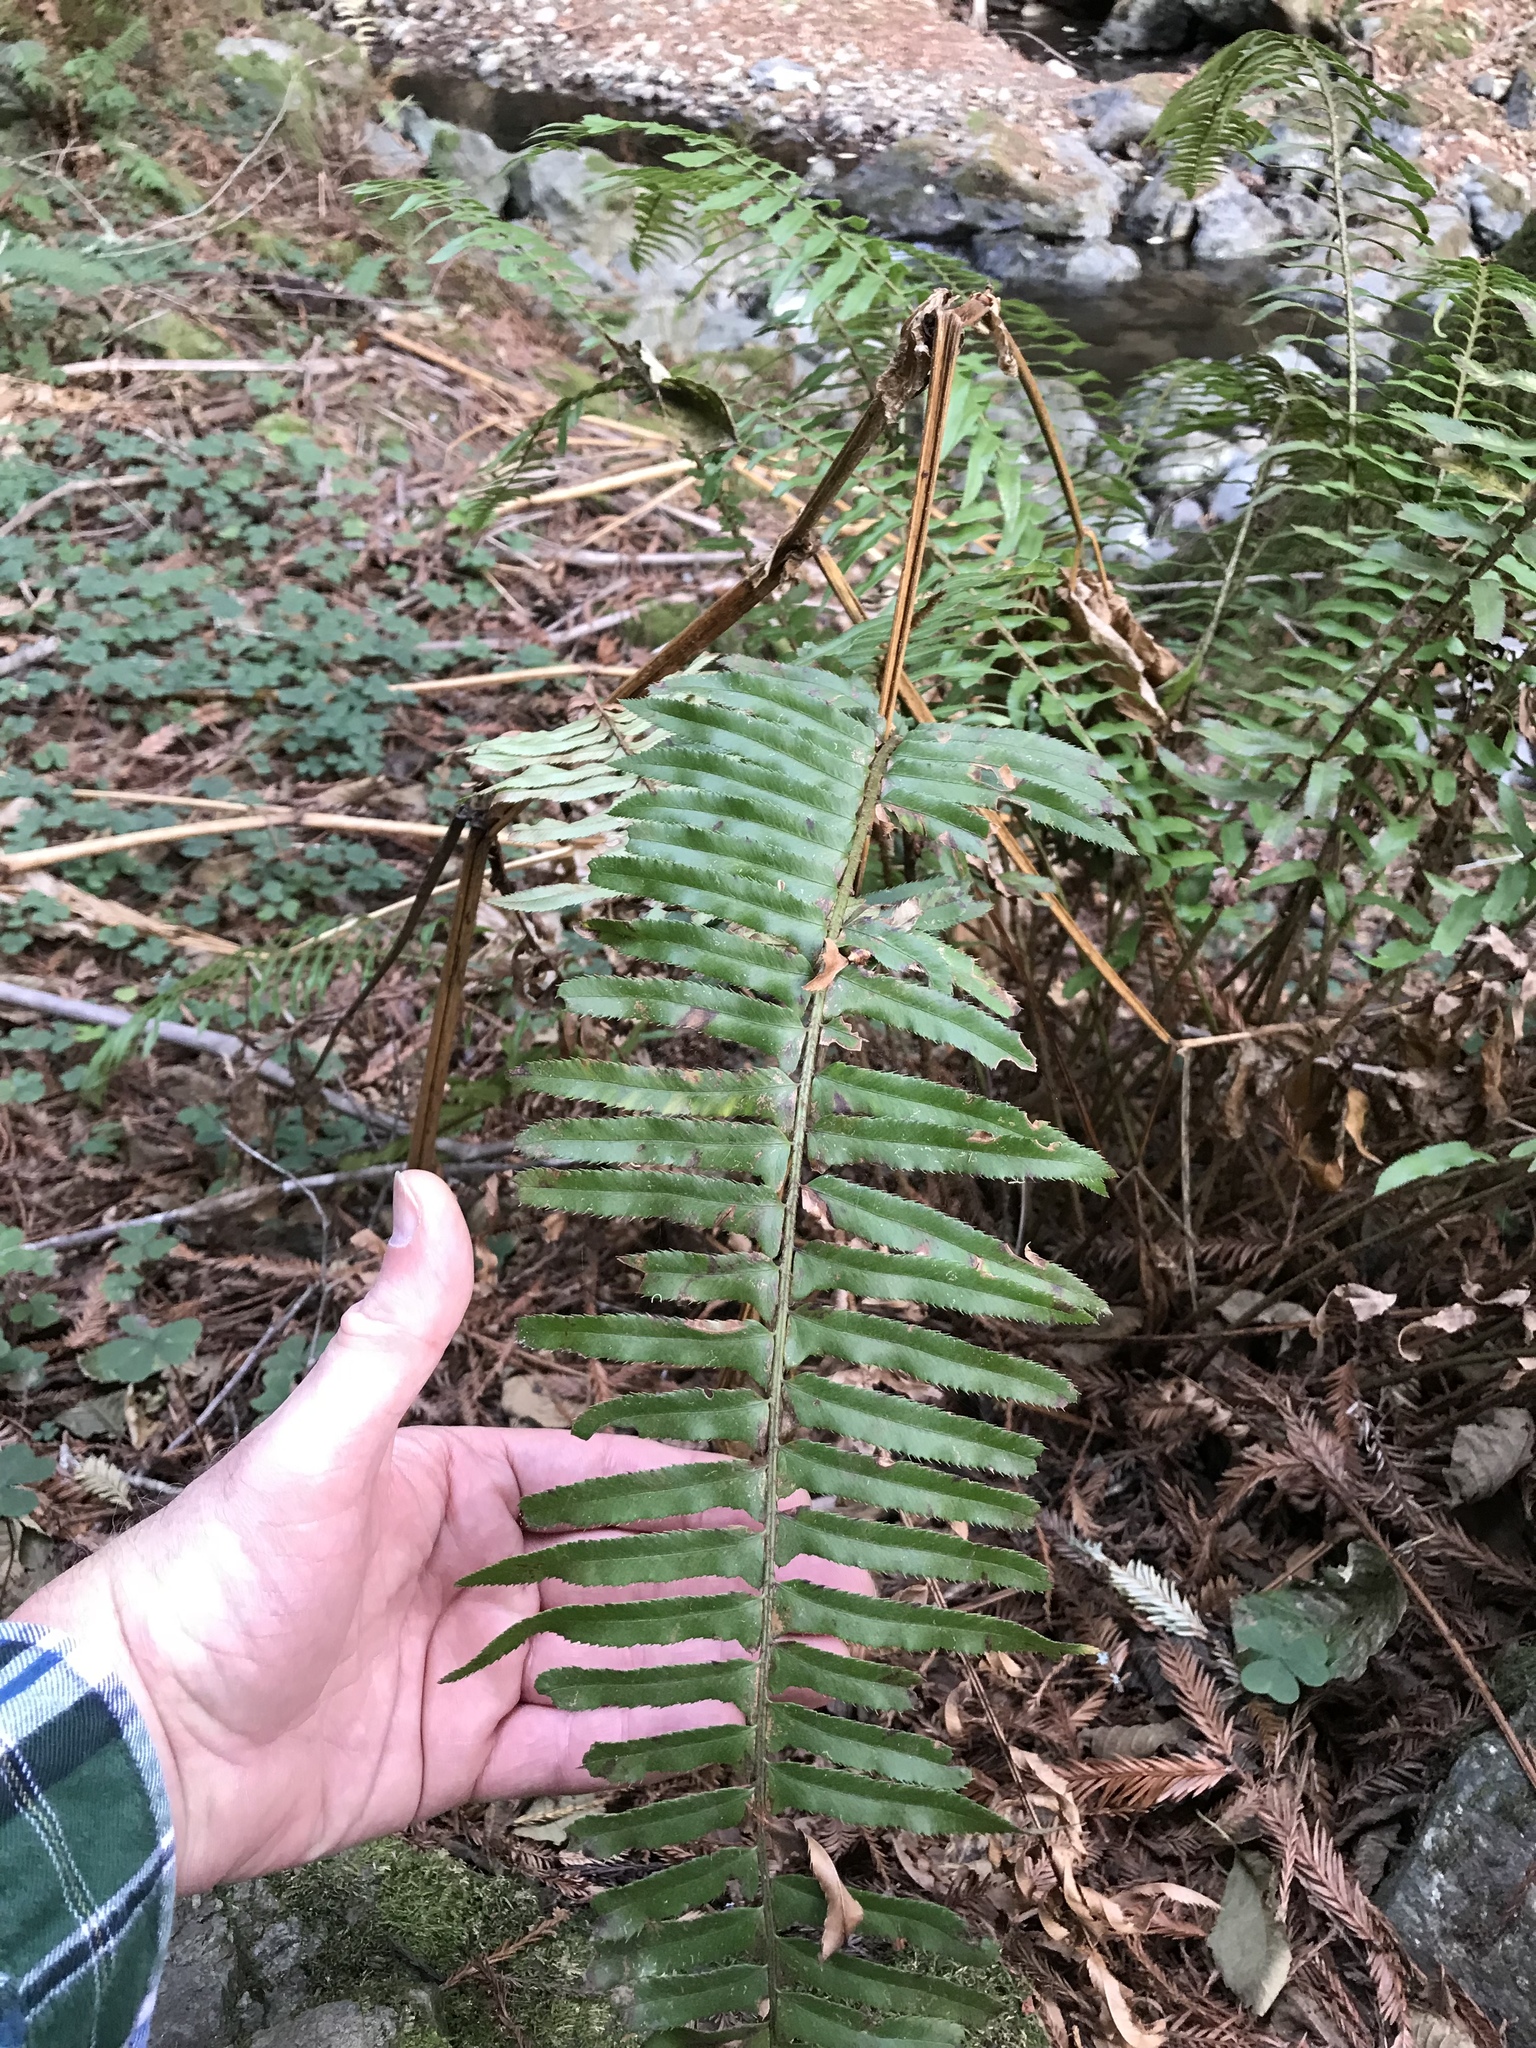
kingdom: Plantae
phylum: Tracheophyta
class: Polypodiopsida
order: Polypodiales
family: Dryopteridaceae
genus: Polystichum
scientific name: Polystichum munitum
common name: Western sword-fern
